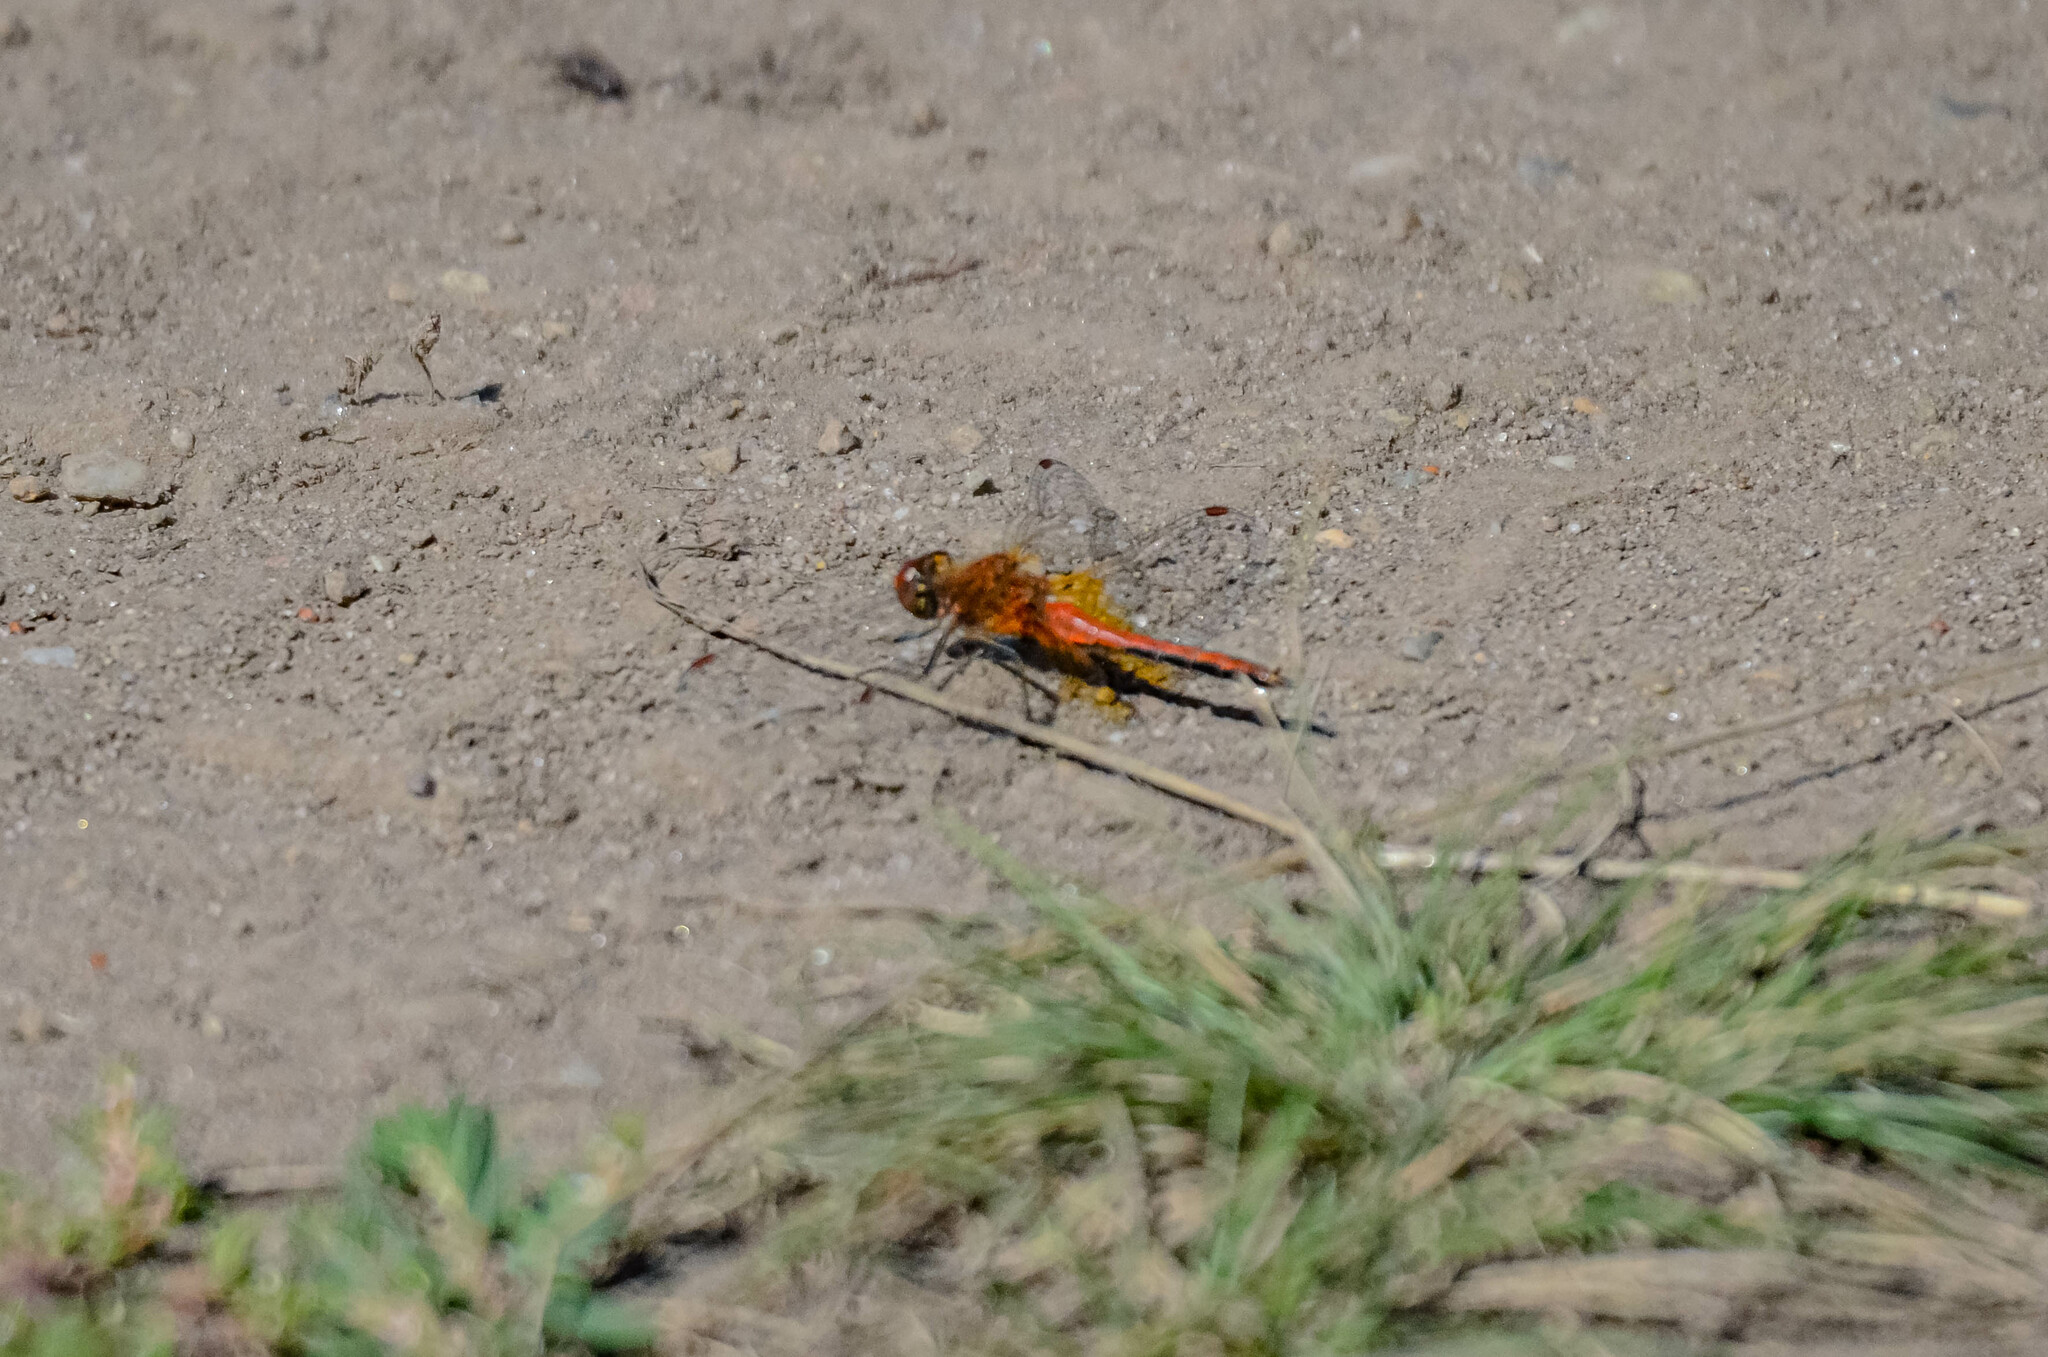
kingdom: Animalia
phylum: Arthropoda
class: Insecta
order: Odonata
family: Libellulidae
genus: Sympetrum
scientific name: Sympetrum flaveolum
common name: Yellow-winged darter
